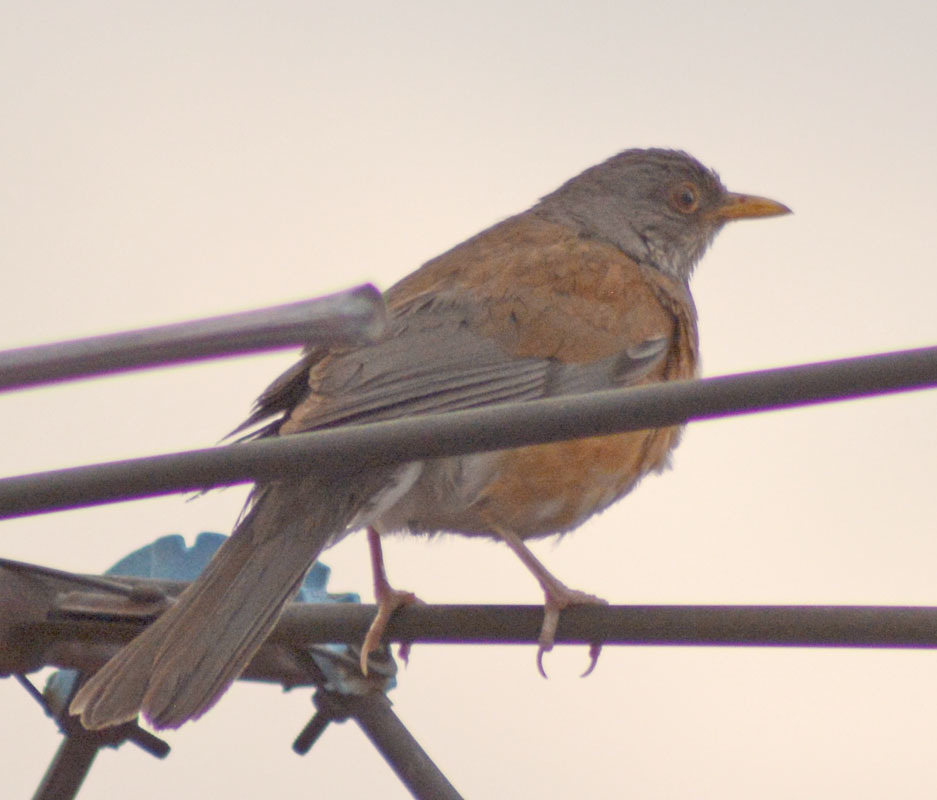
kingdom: Animalia
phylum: Chordata
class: Aves
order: Passeriformes
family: Turdidae
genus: Turdus
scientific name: Turdus rufopalliatus
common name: Rufous-backed robin
